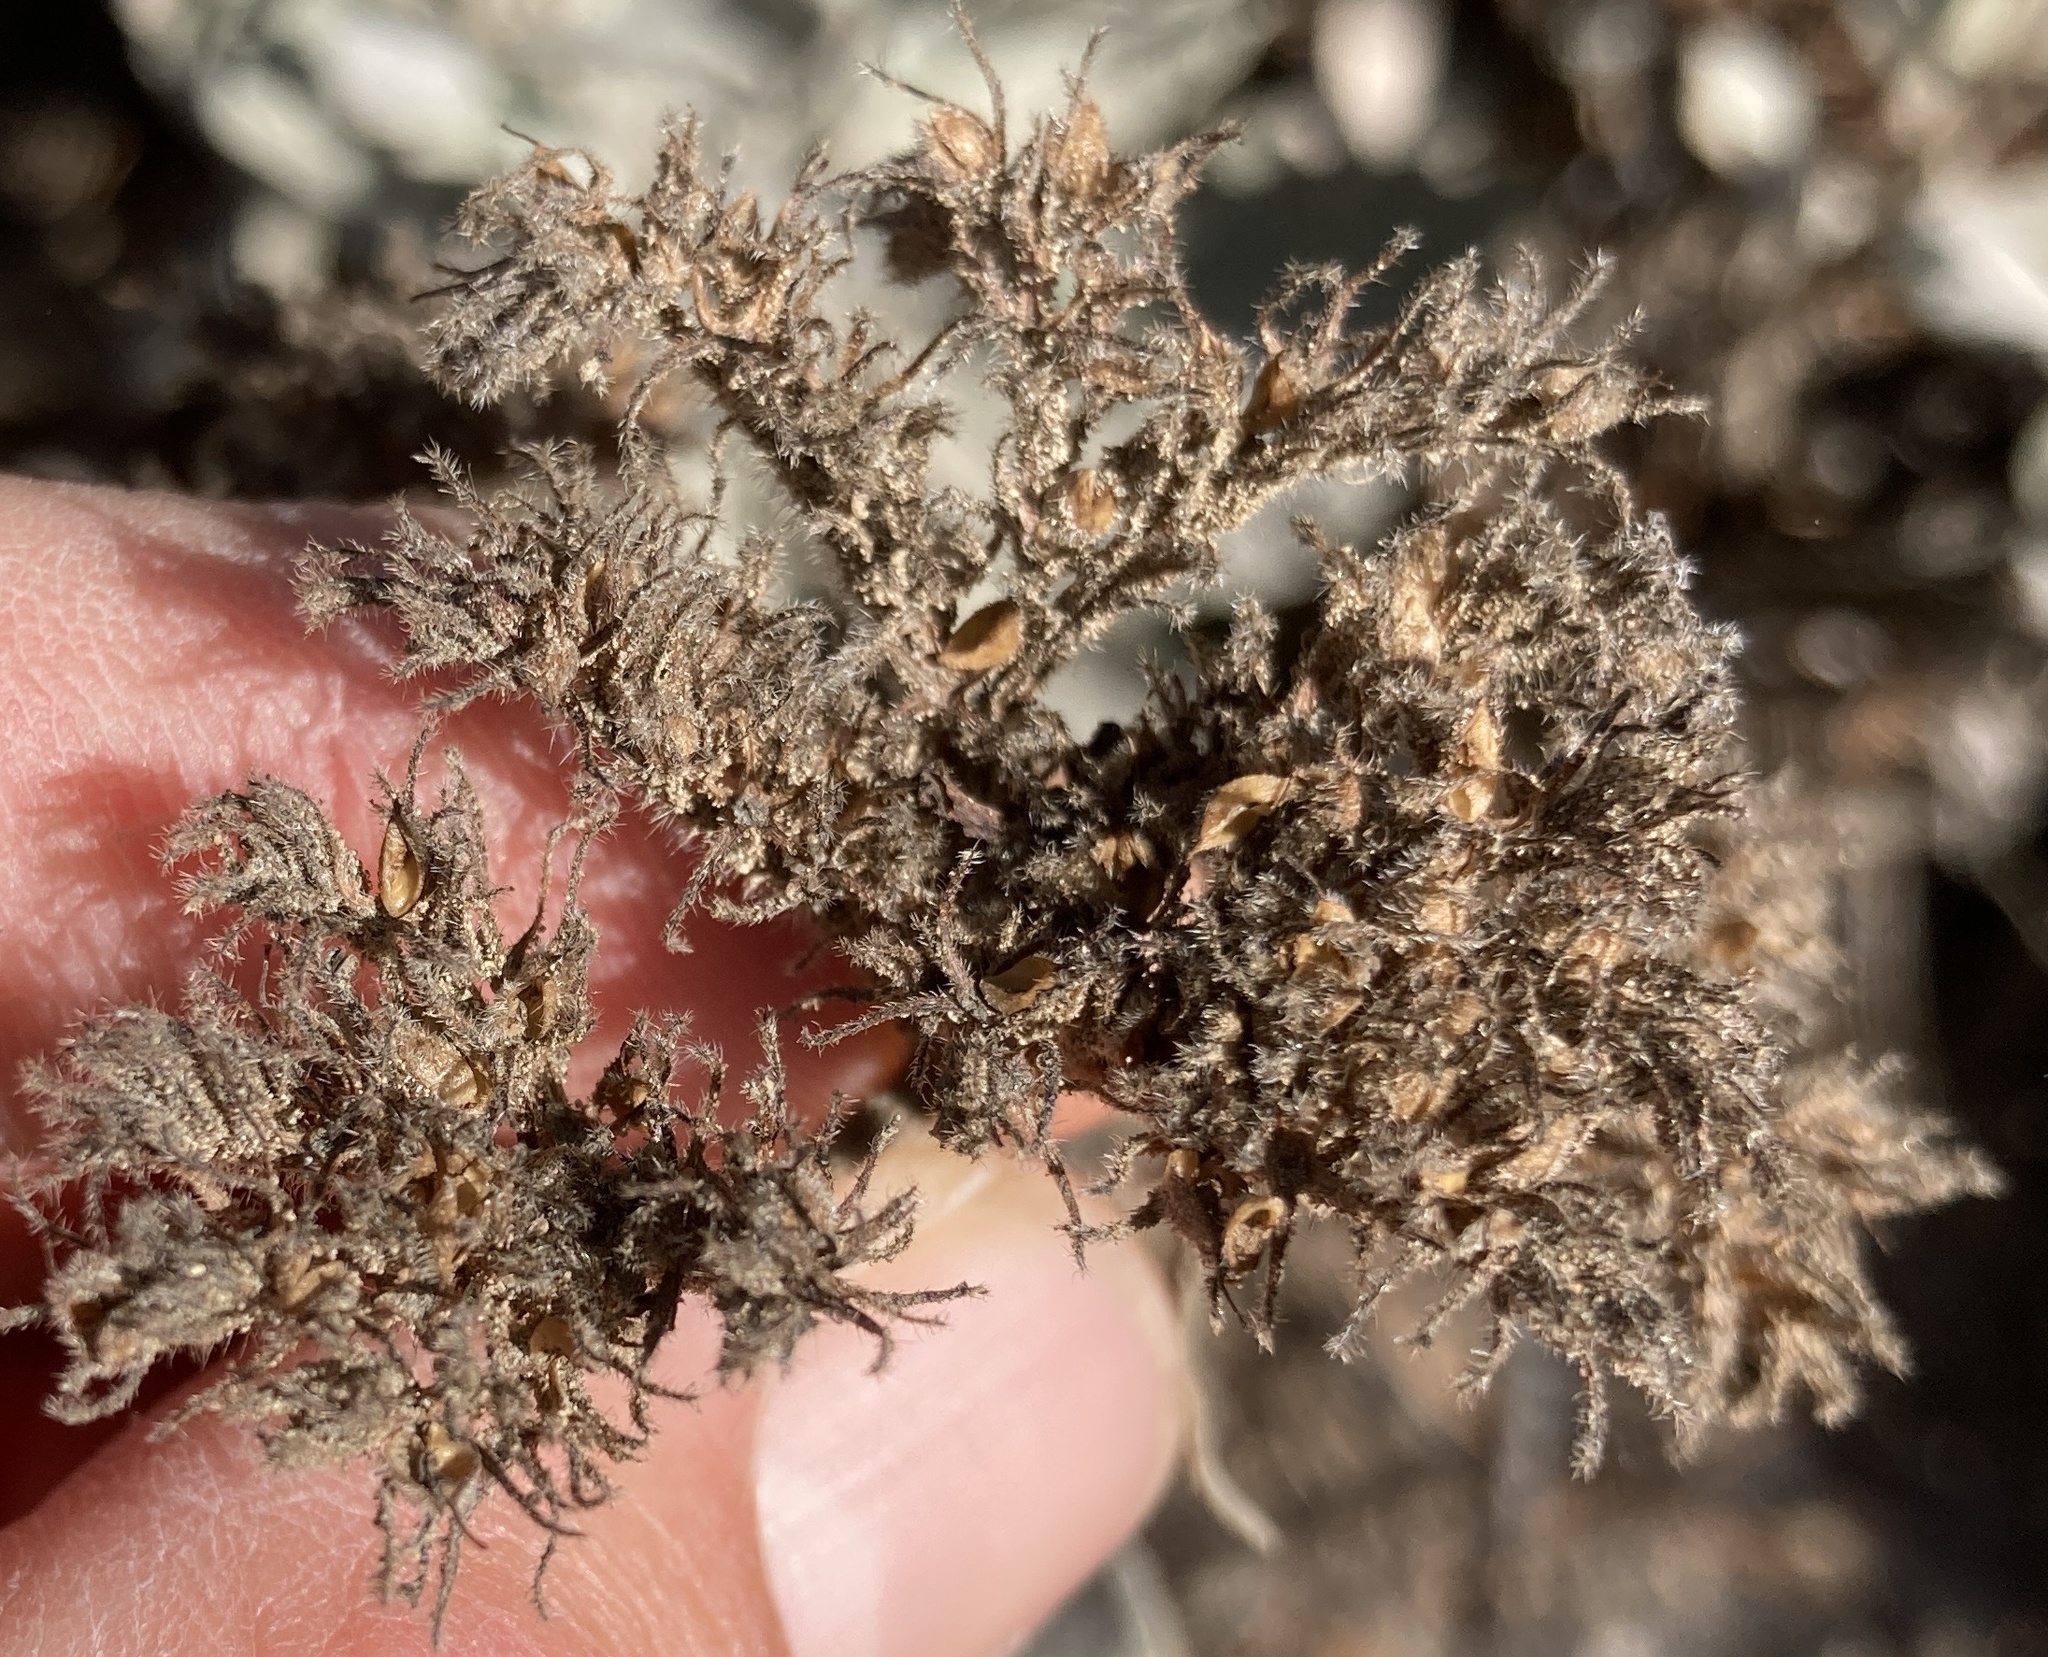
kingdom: Plantae
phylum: Tracheophyta
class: Magnoliopsida
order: Boraginales
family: Namaceae
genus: Eriodictyon
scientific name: Eriodictyon traskiae
